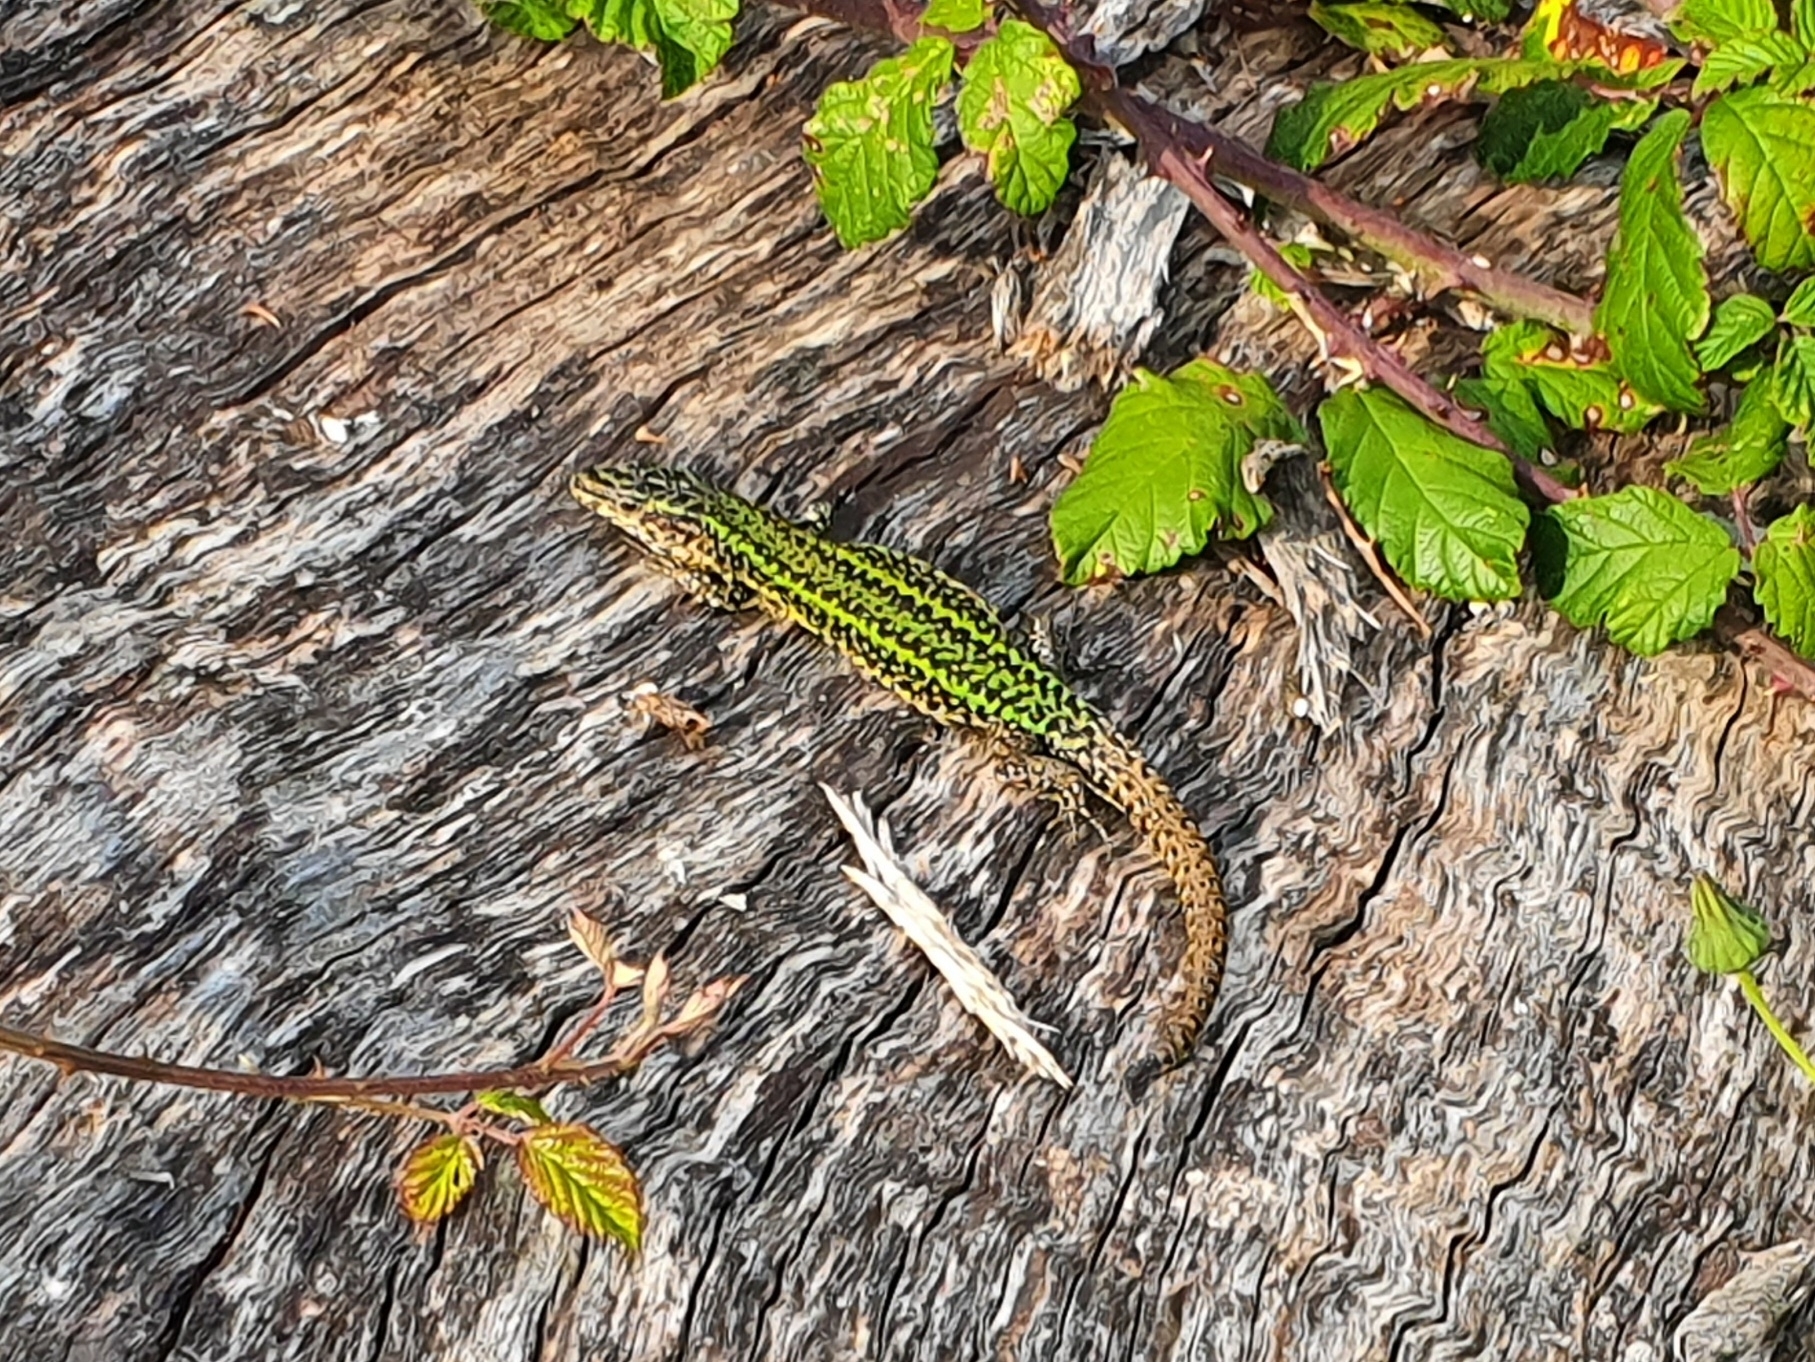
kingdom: Animalia
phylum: Chordata
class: Squamata
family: Lacertidae
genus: Podarcis
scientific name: Podarcis bocagei
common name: Bocage's wall lizard
